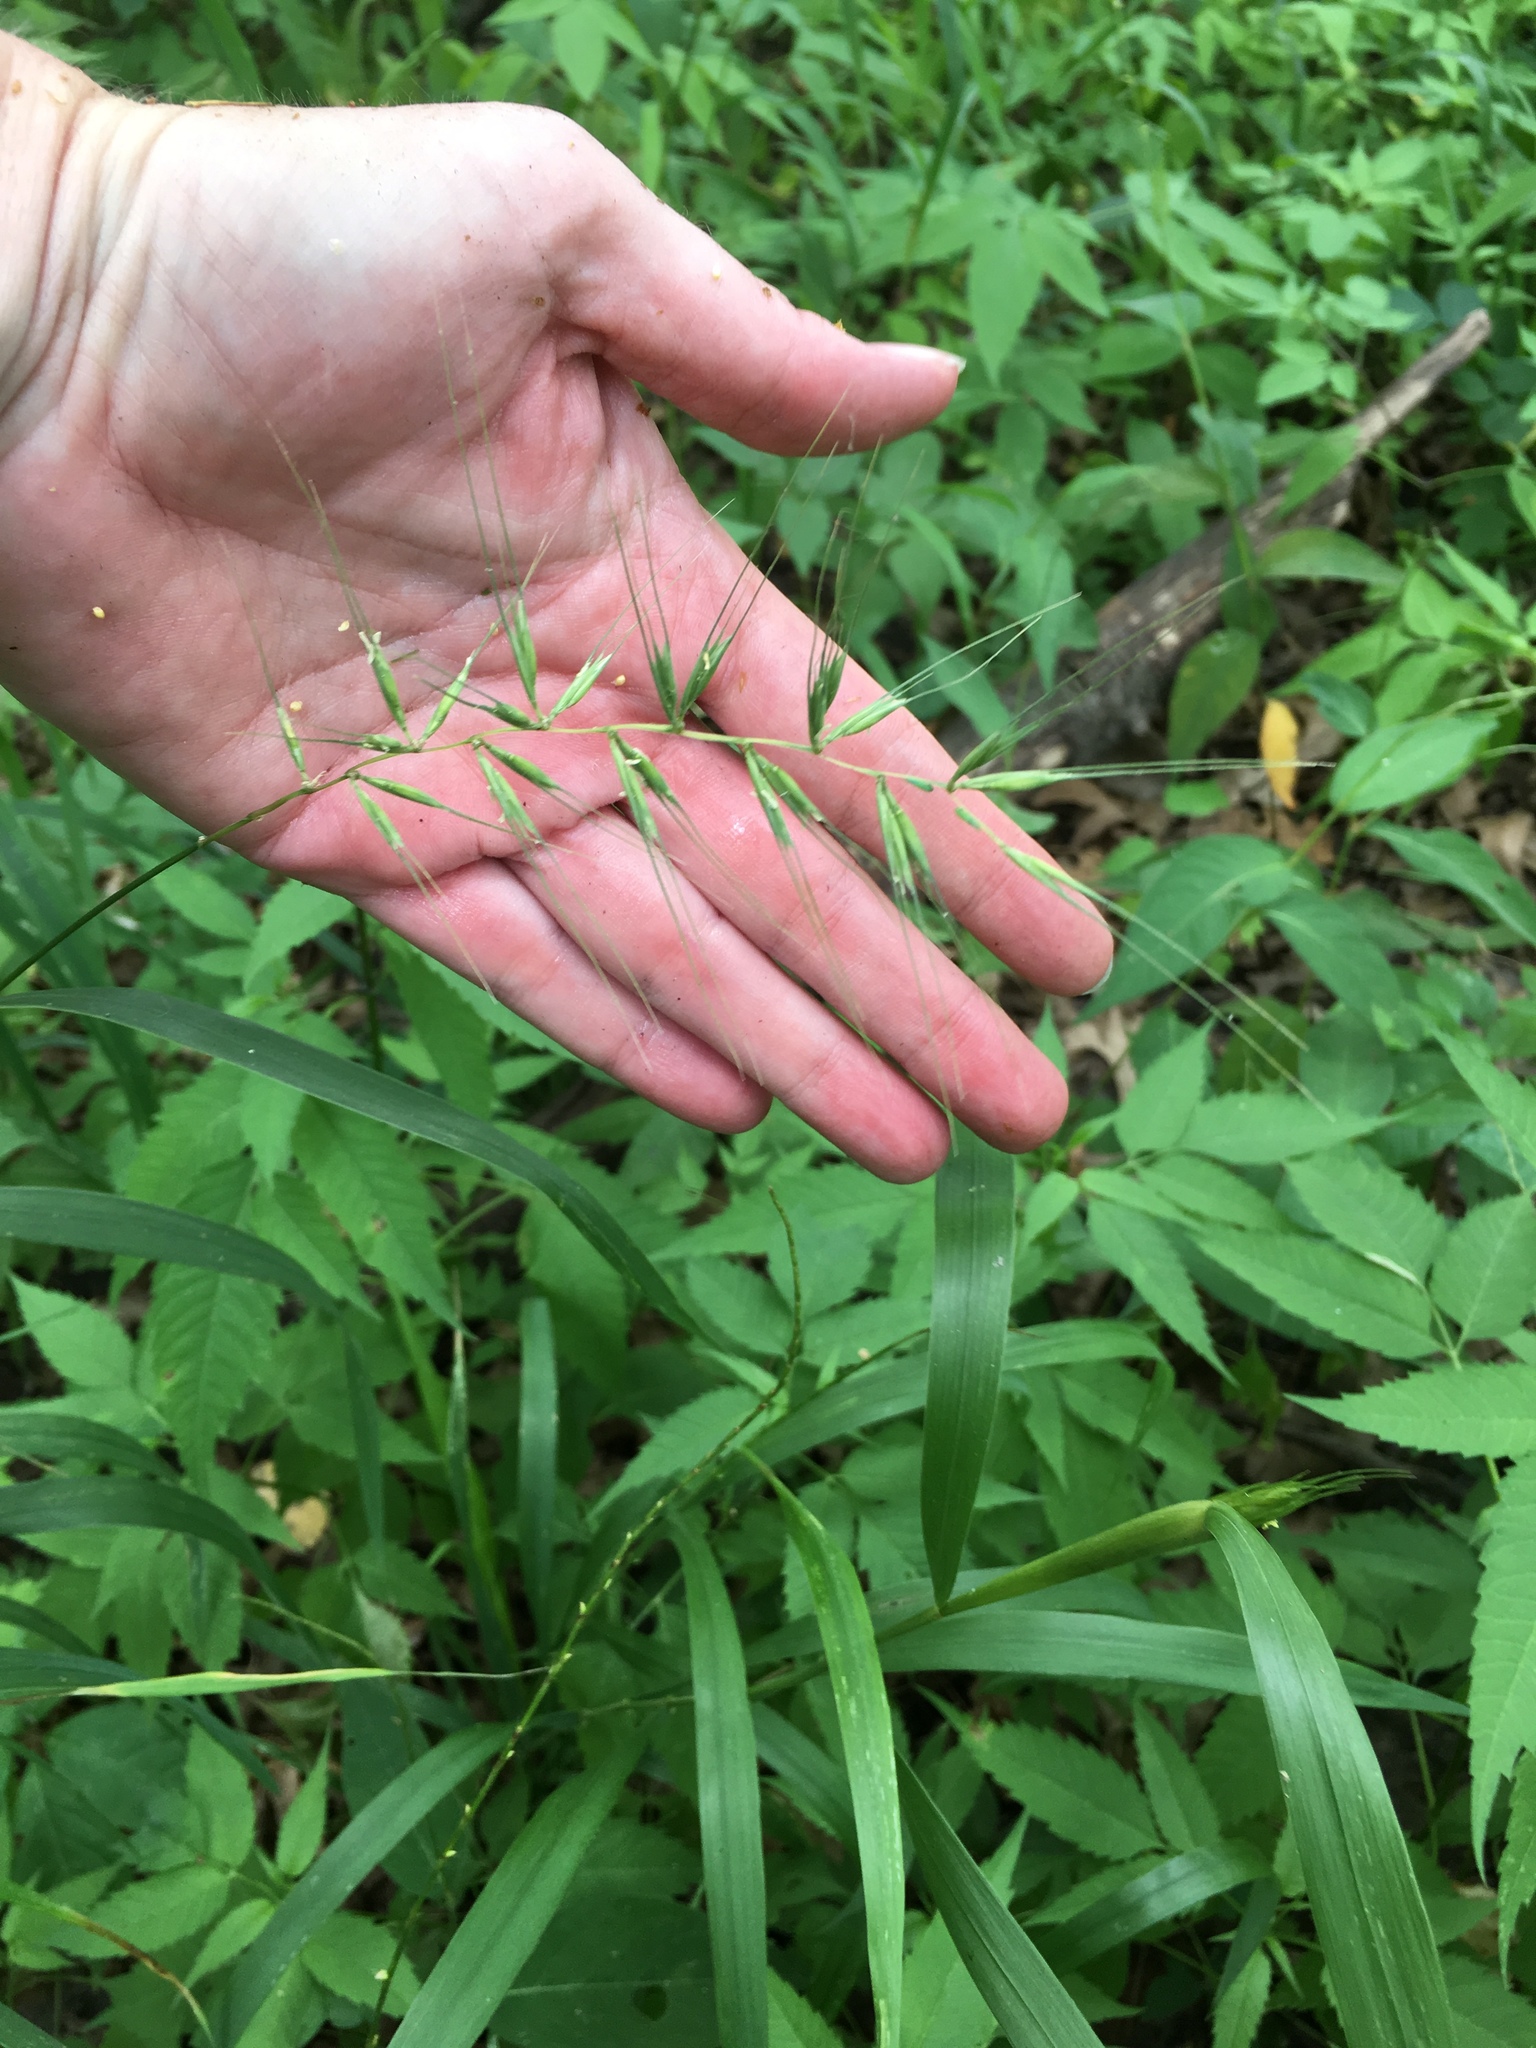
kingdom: Plantae
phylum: Tracheophyta
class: Liliopsida
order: Poales
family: Poaceae
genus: Elymus
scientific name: Elymus hystrix
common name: Bottlebrush grass
